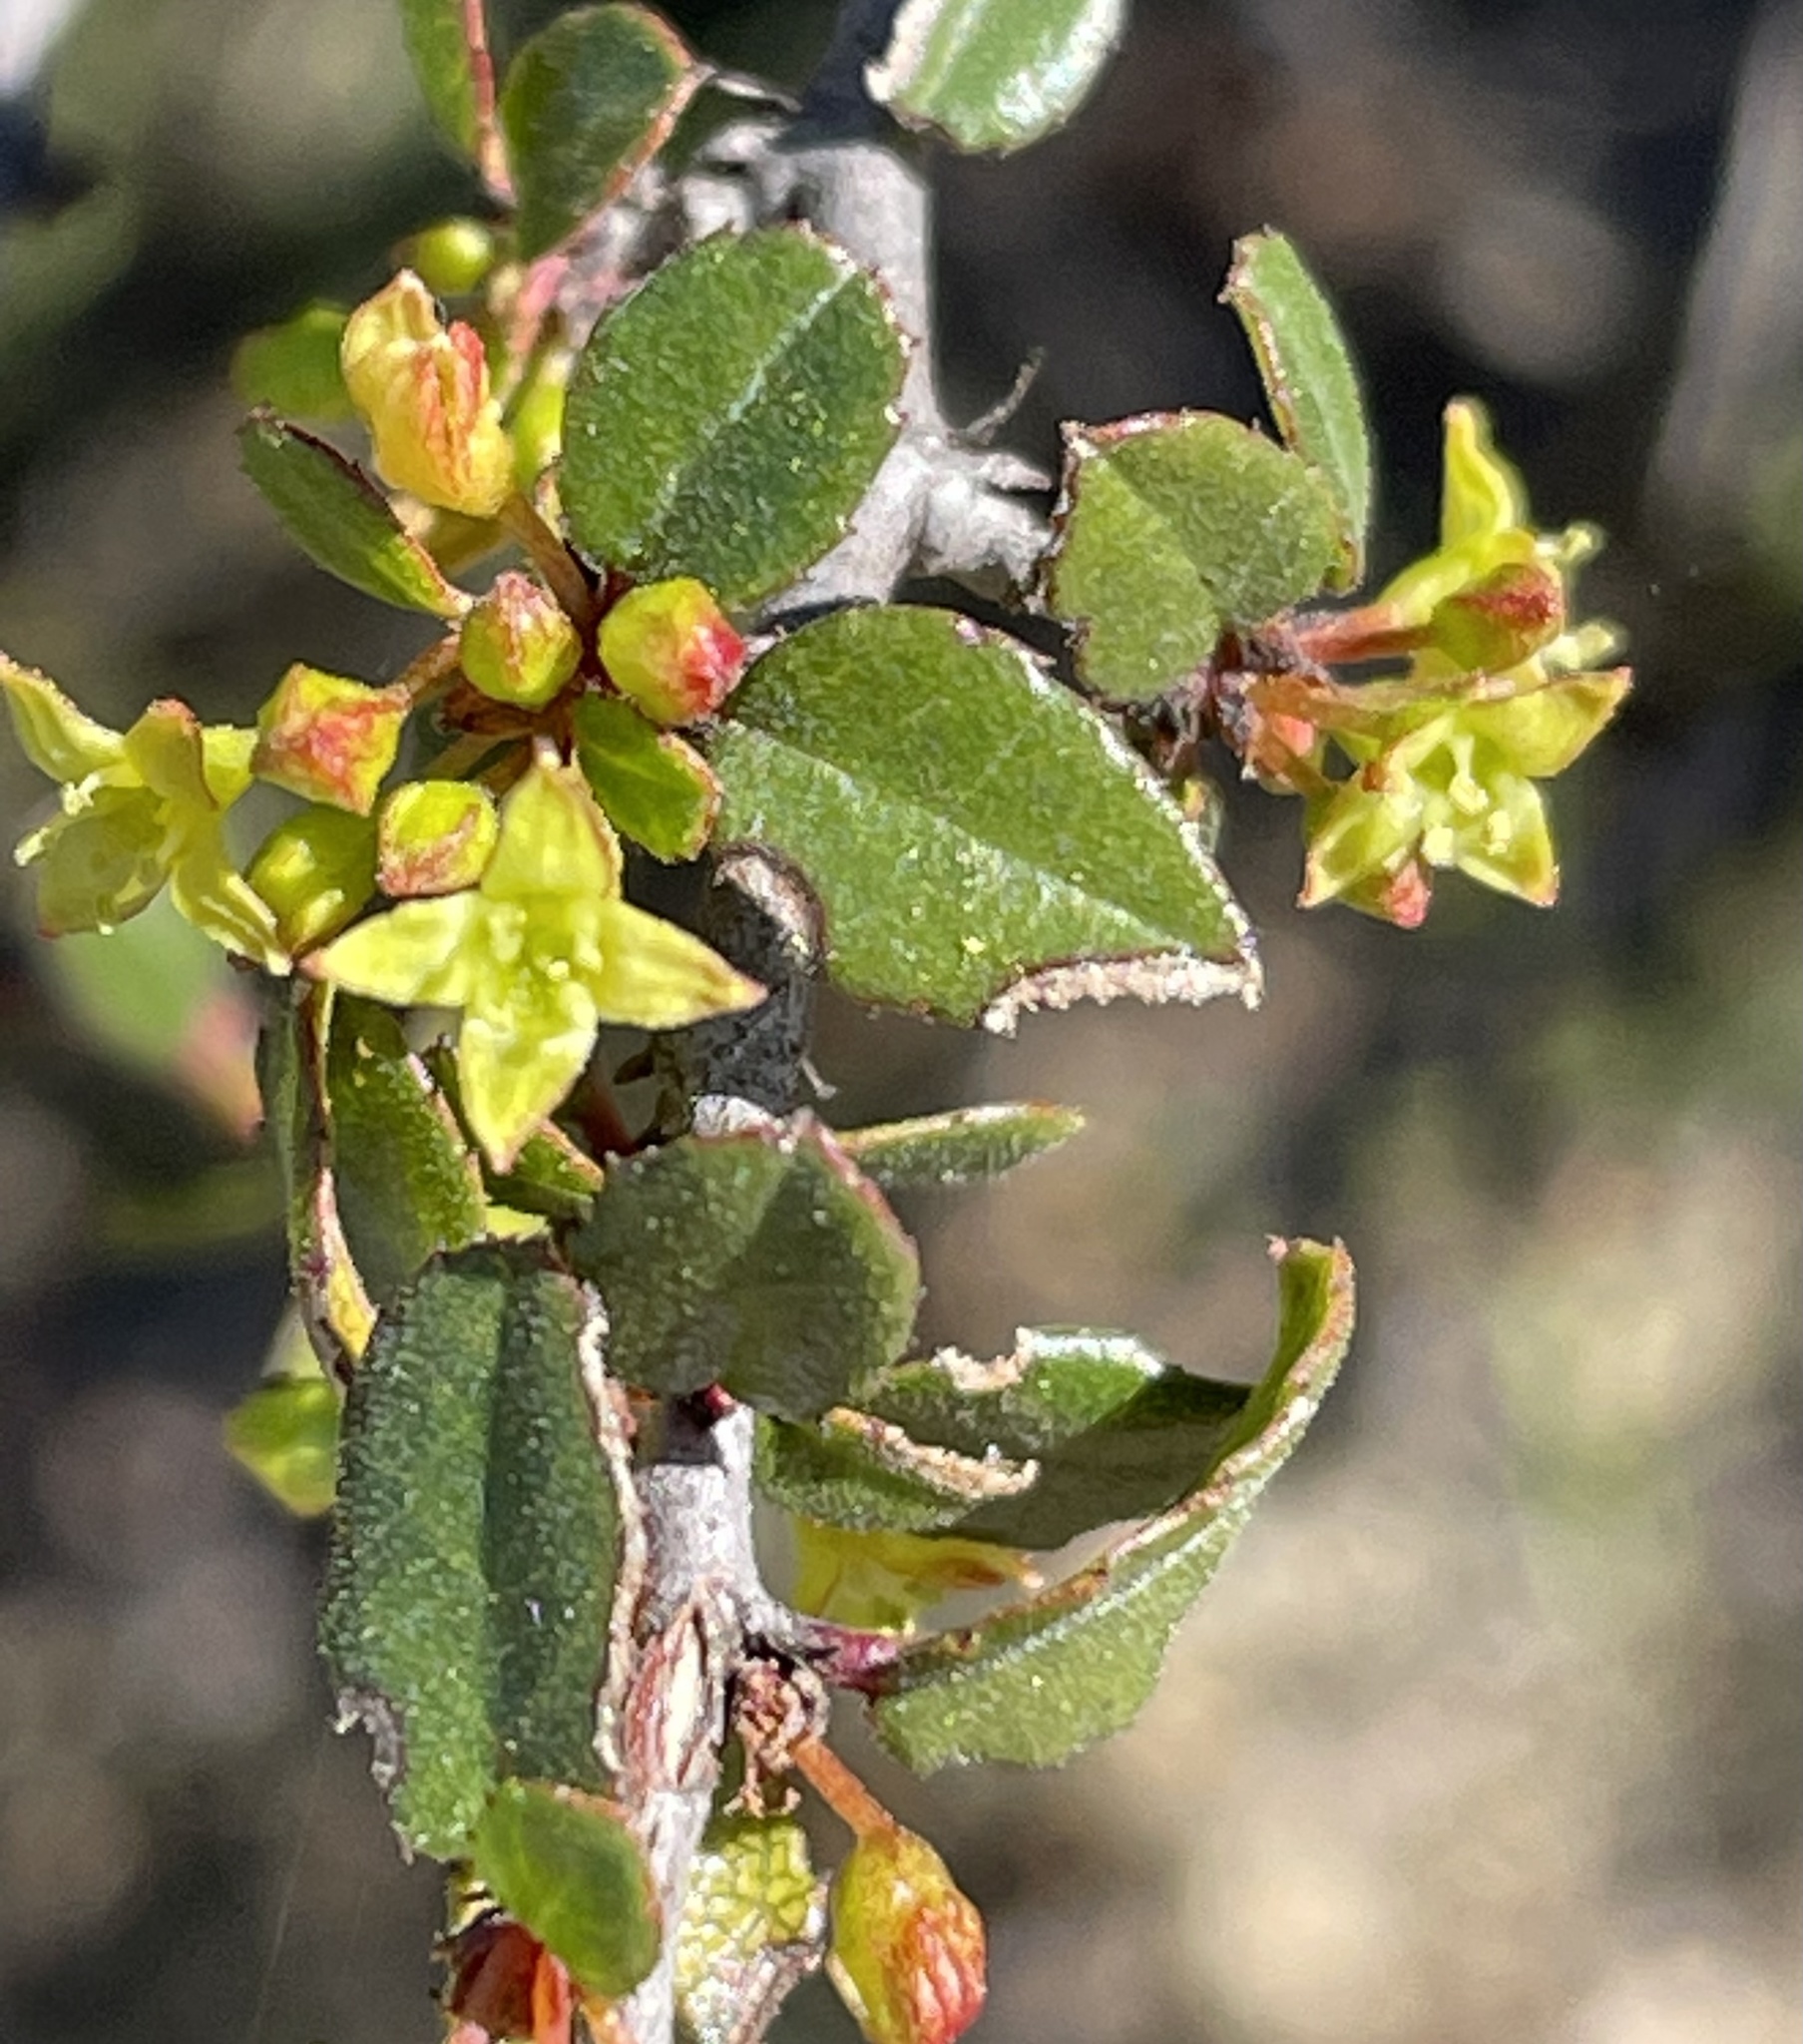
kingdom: Plantae
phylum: Tracheophyta
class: Magnoliopsida
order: Rosales
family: Rhamnaceae
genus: Endotropis
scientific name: Endotropis crocea
